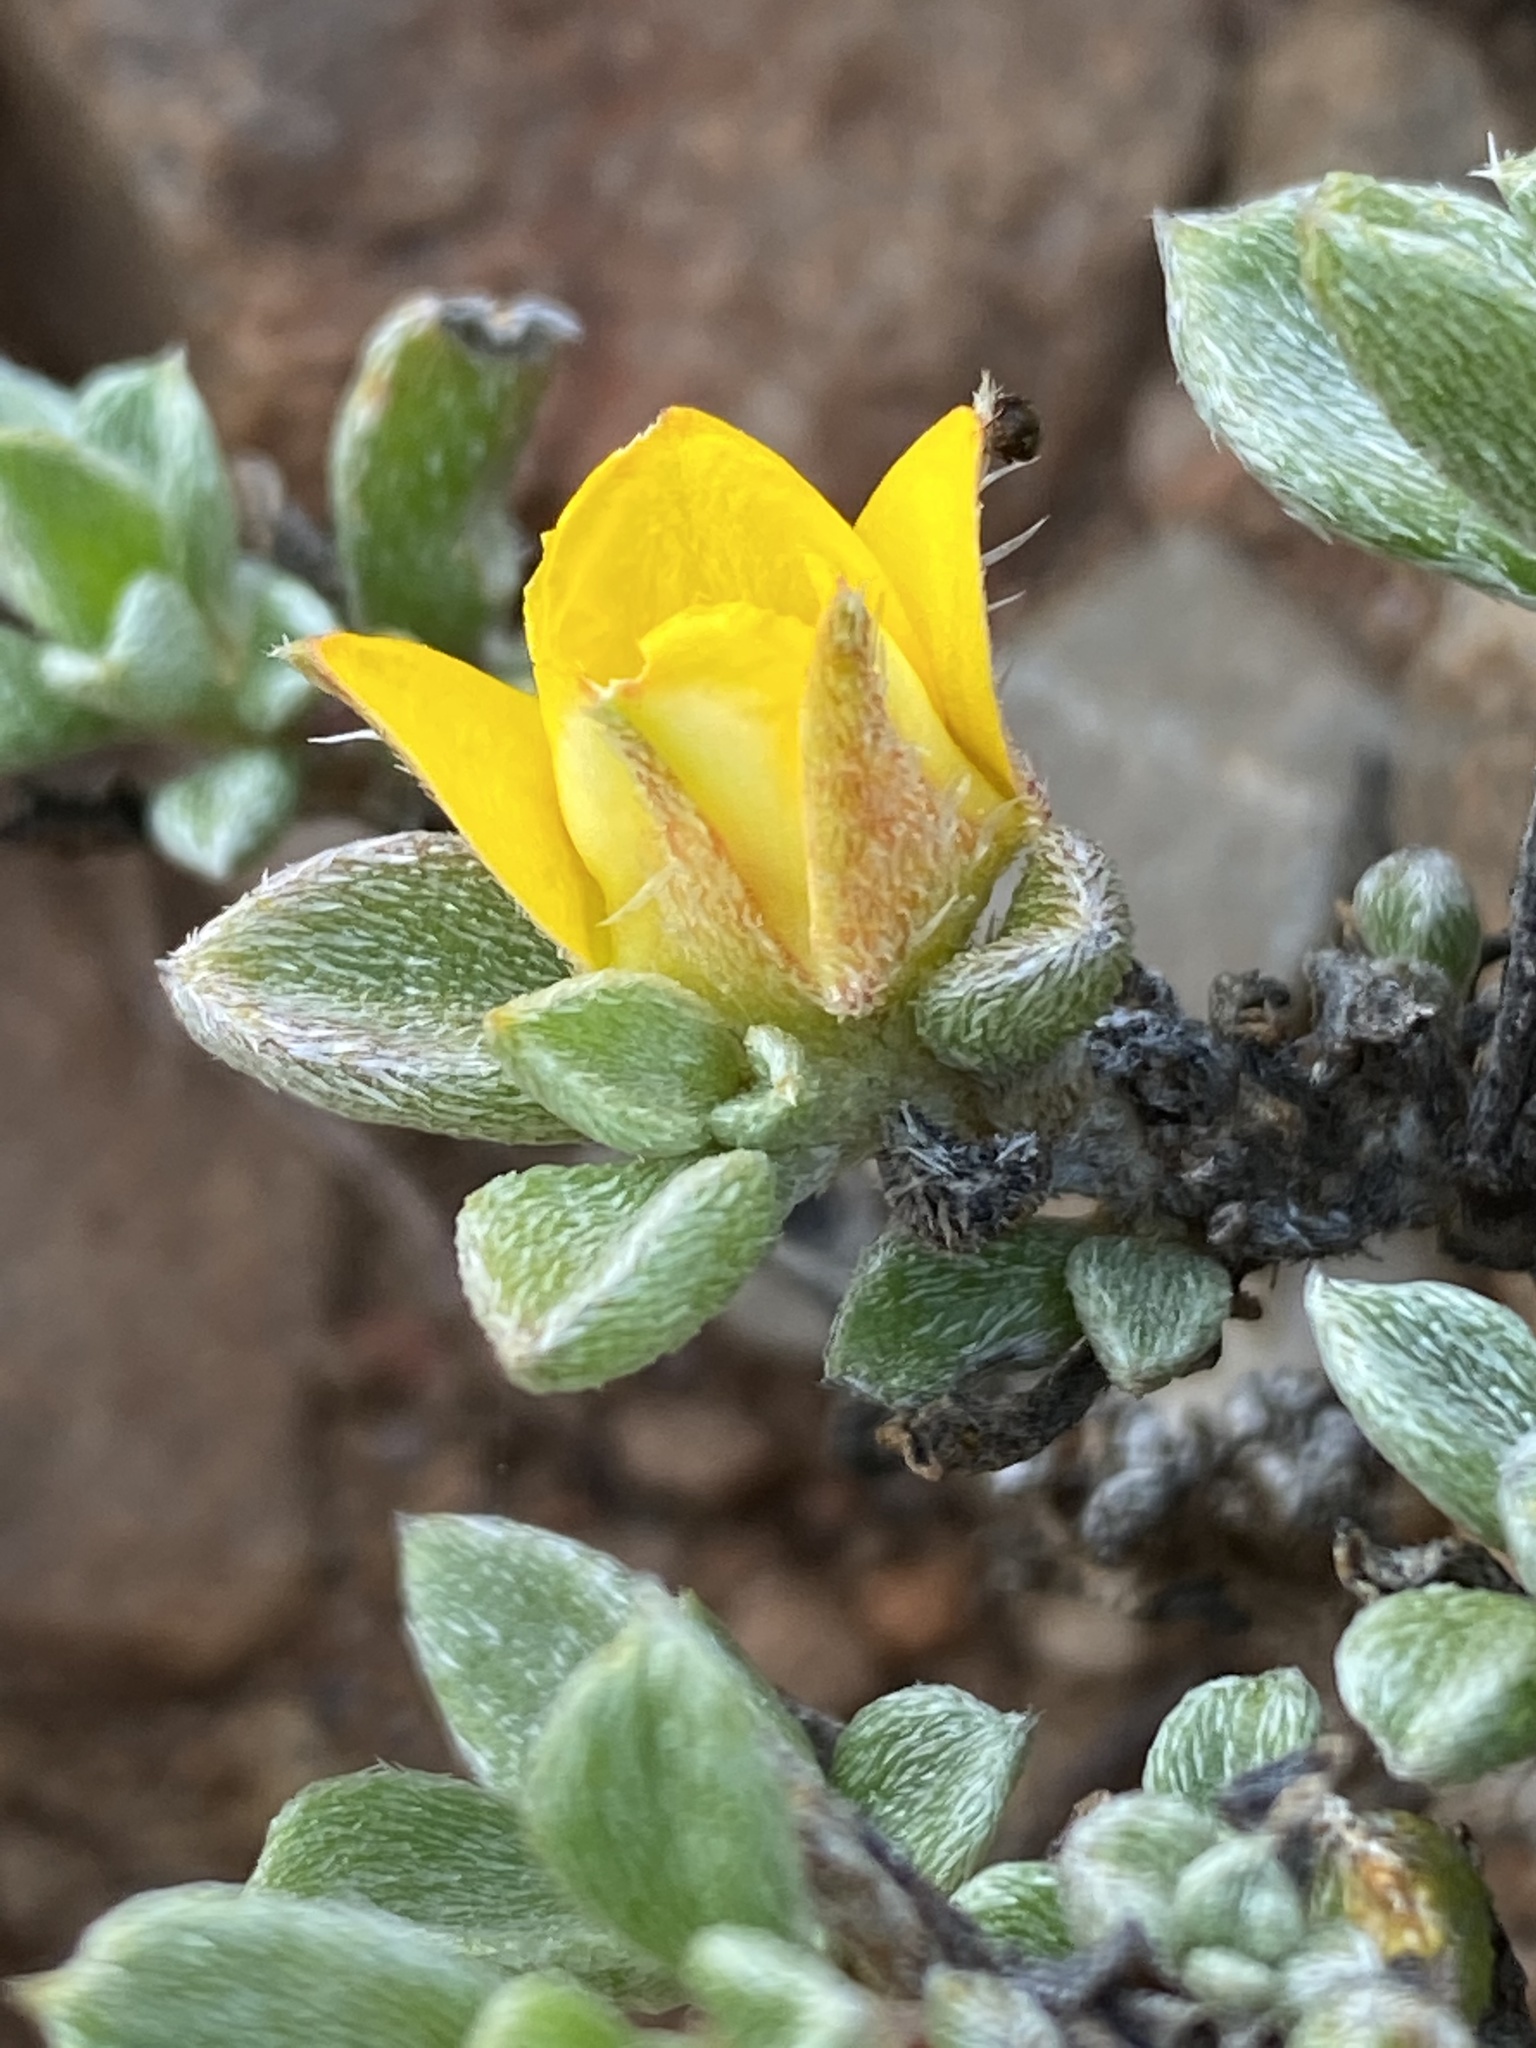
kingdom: Plantae
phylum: Tracheophyta
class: Magnoliopsida
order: Caryophyllales
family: Aizoaceae
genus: Aizoon
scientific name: Aizoon karooicum
